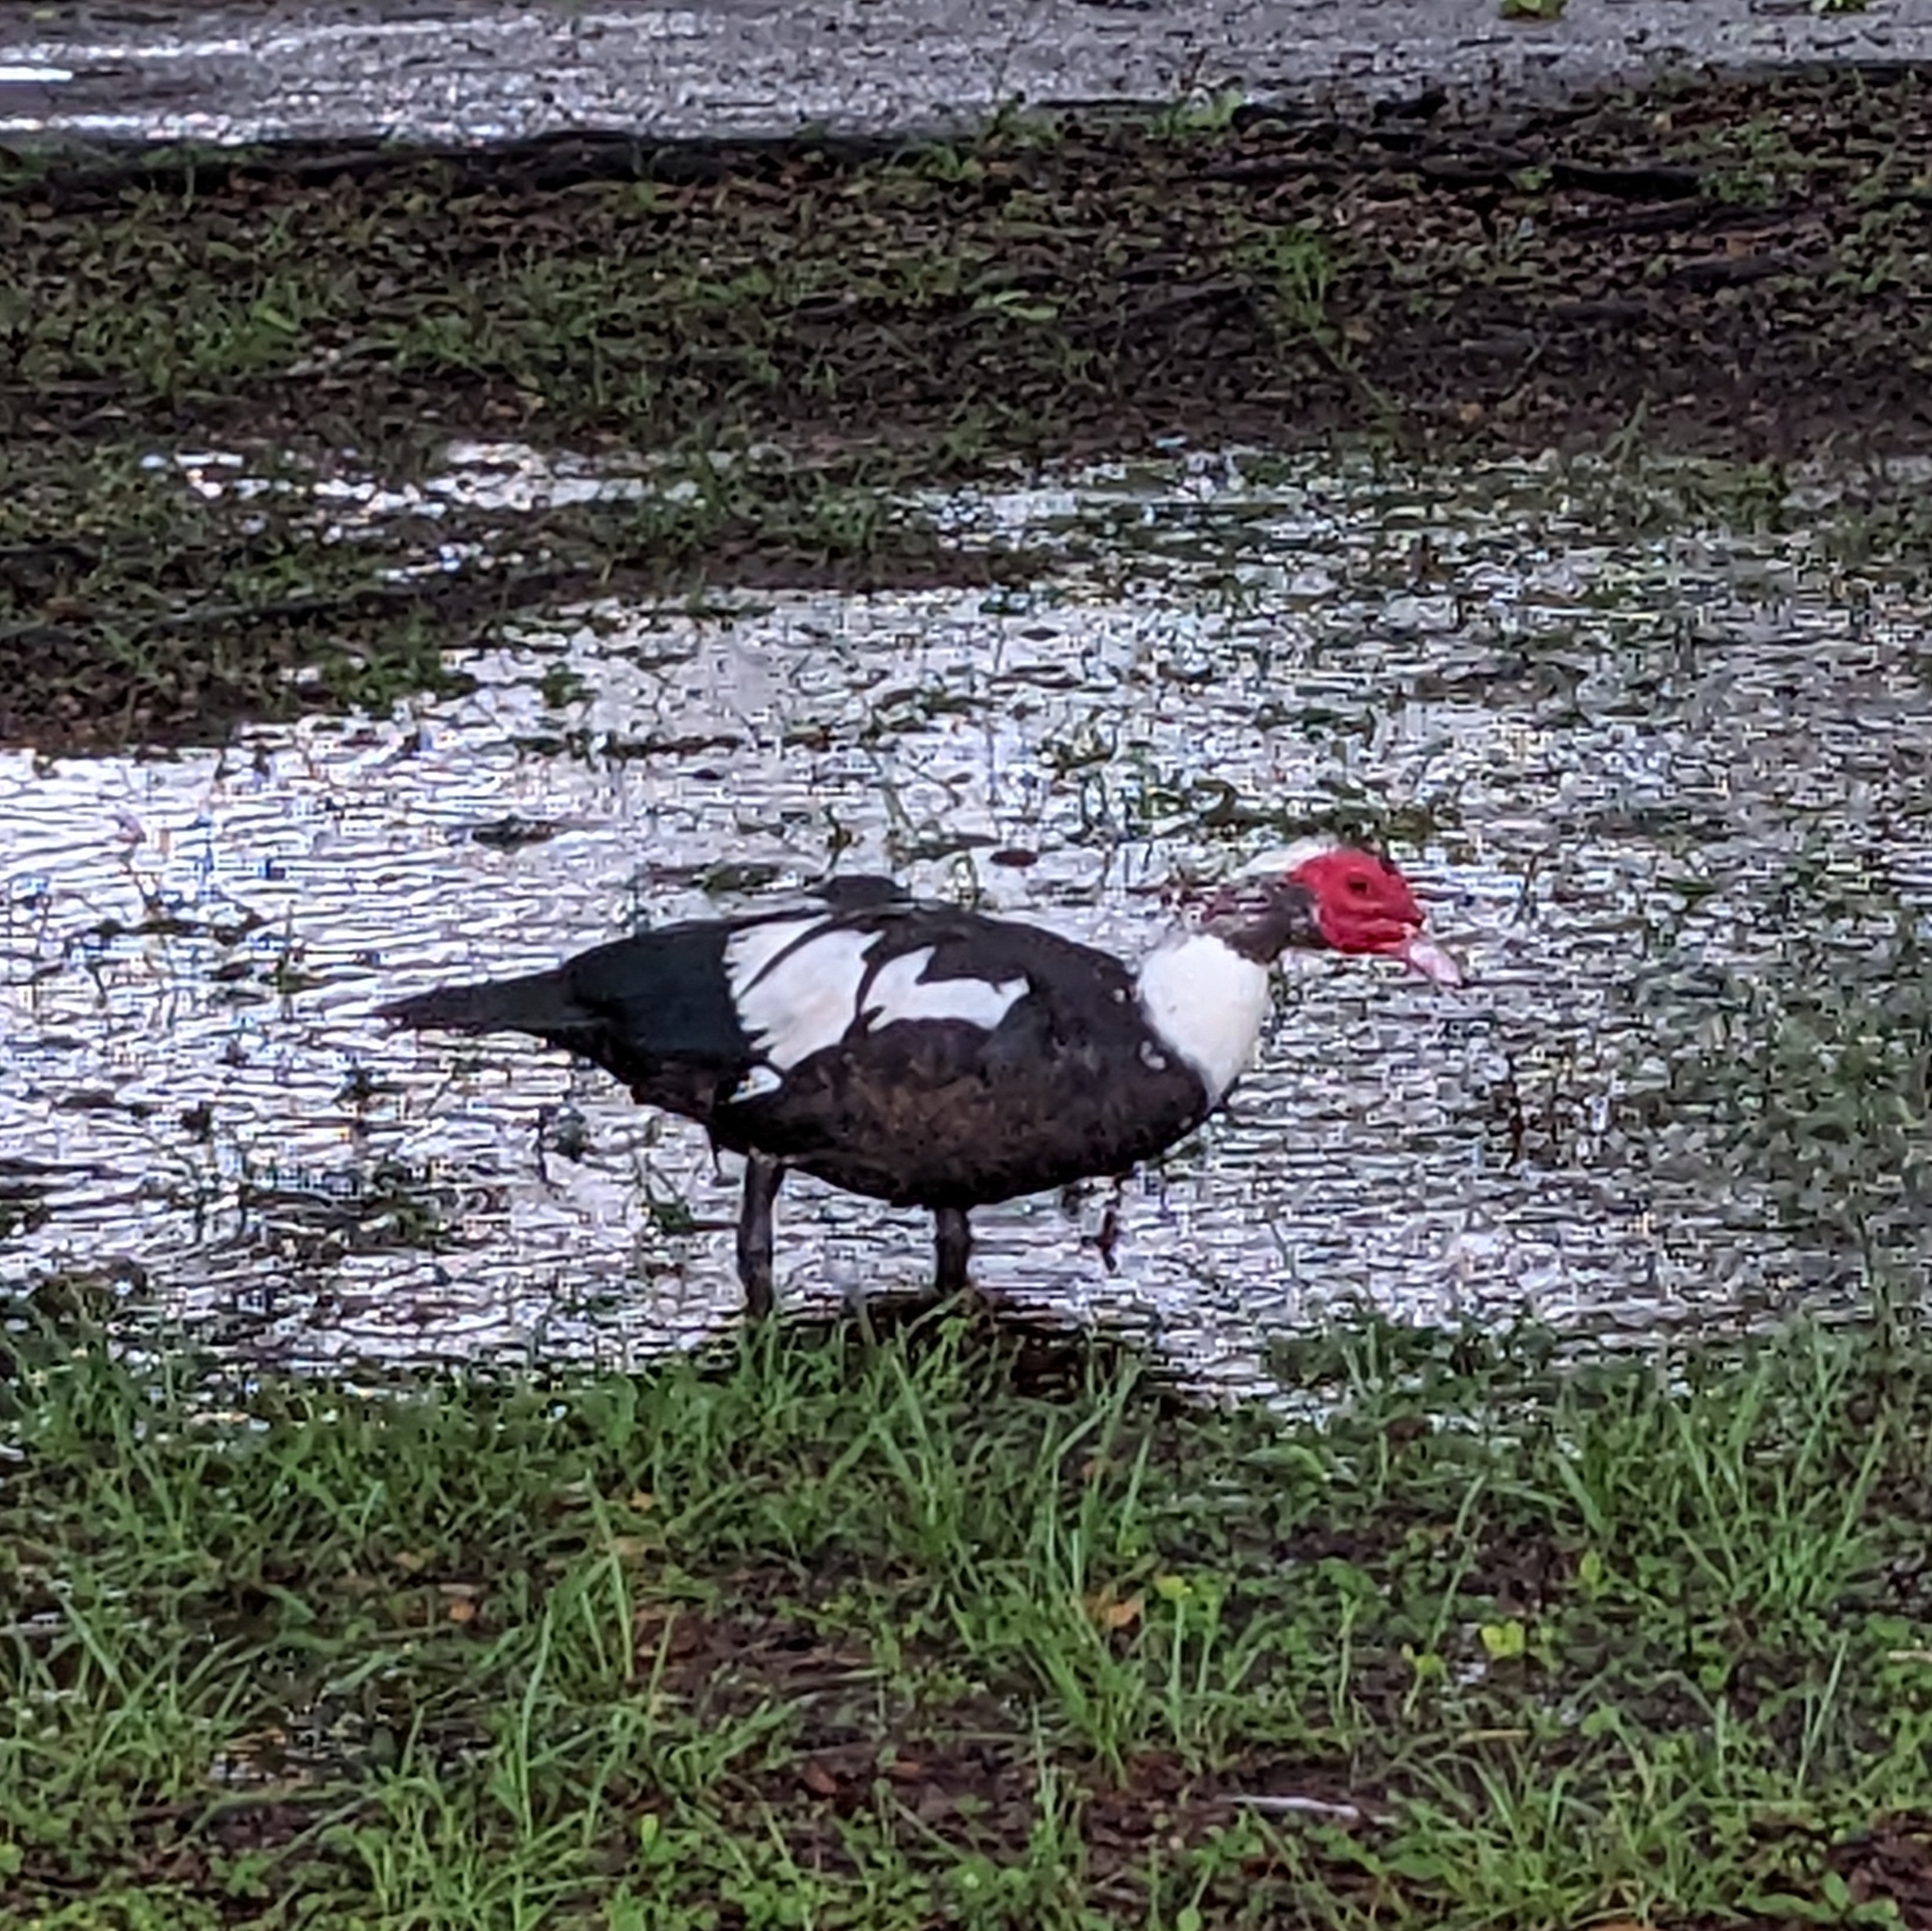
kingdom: Animalia
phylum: Chordata
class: Aves
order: Anseriformes
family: Anatidae
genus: Cairina
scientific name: Cairina moschata
